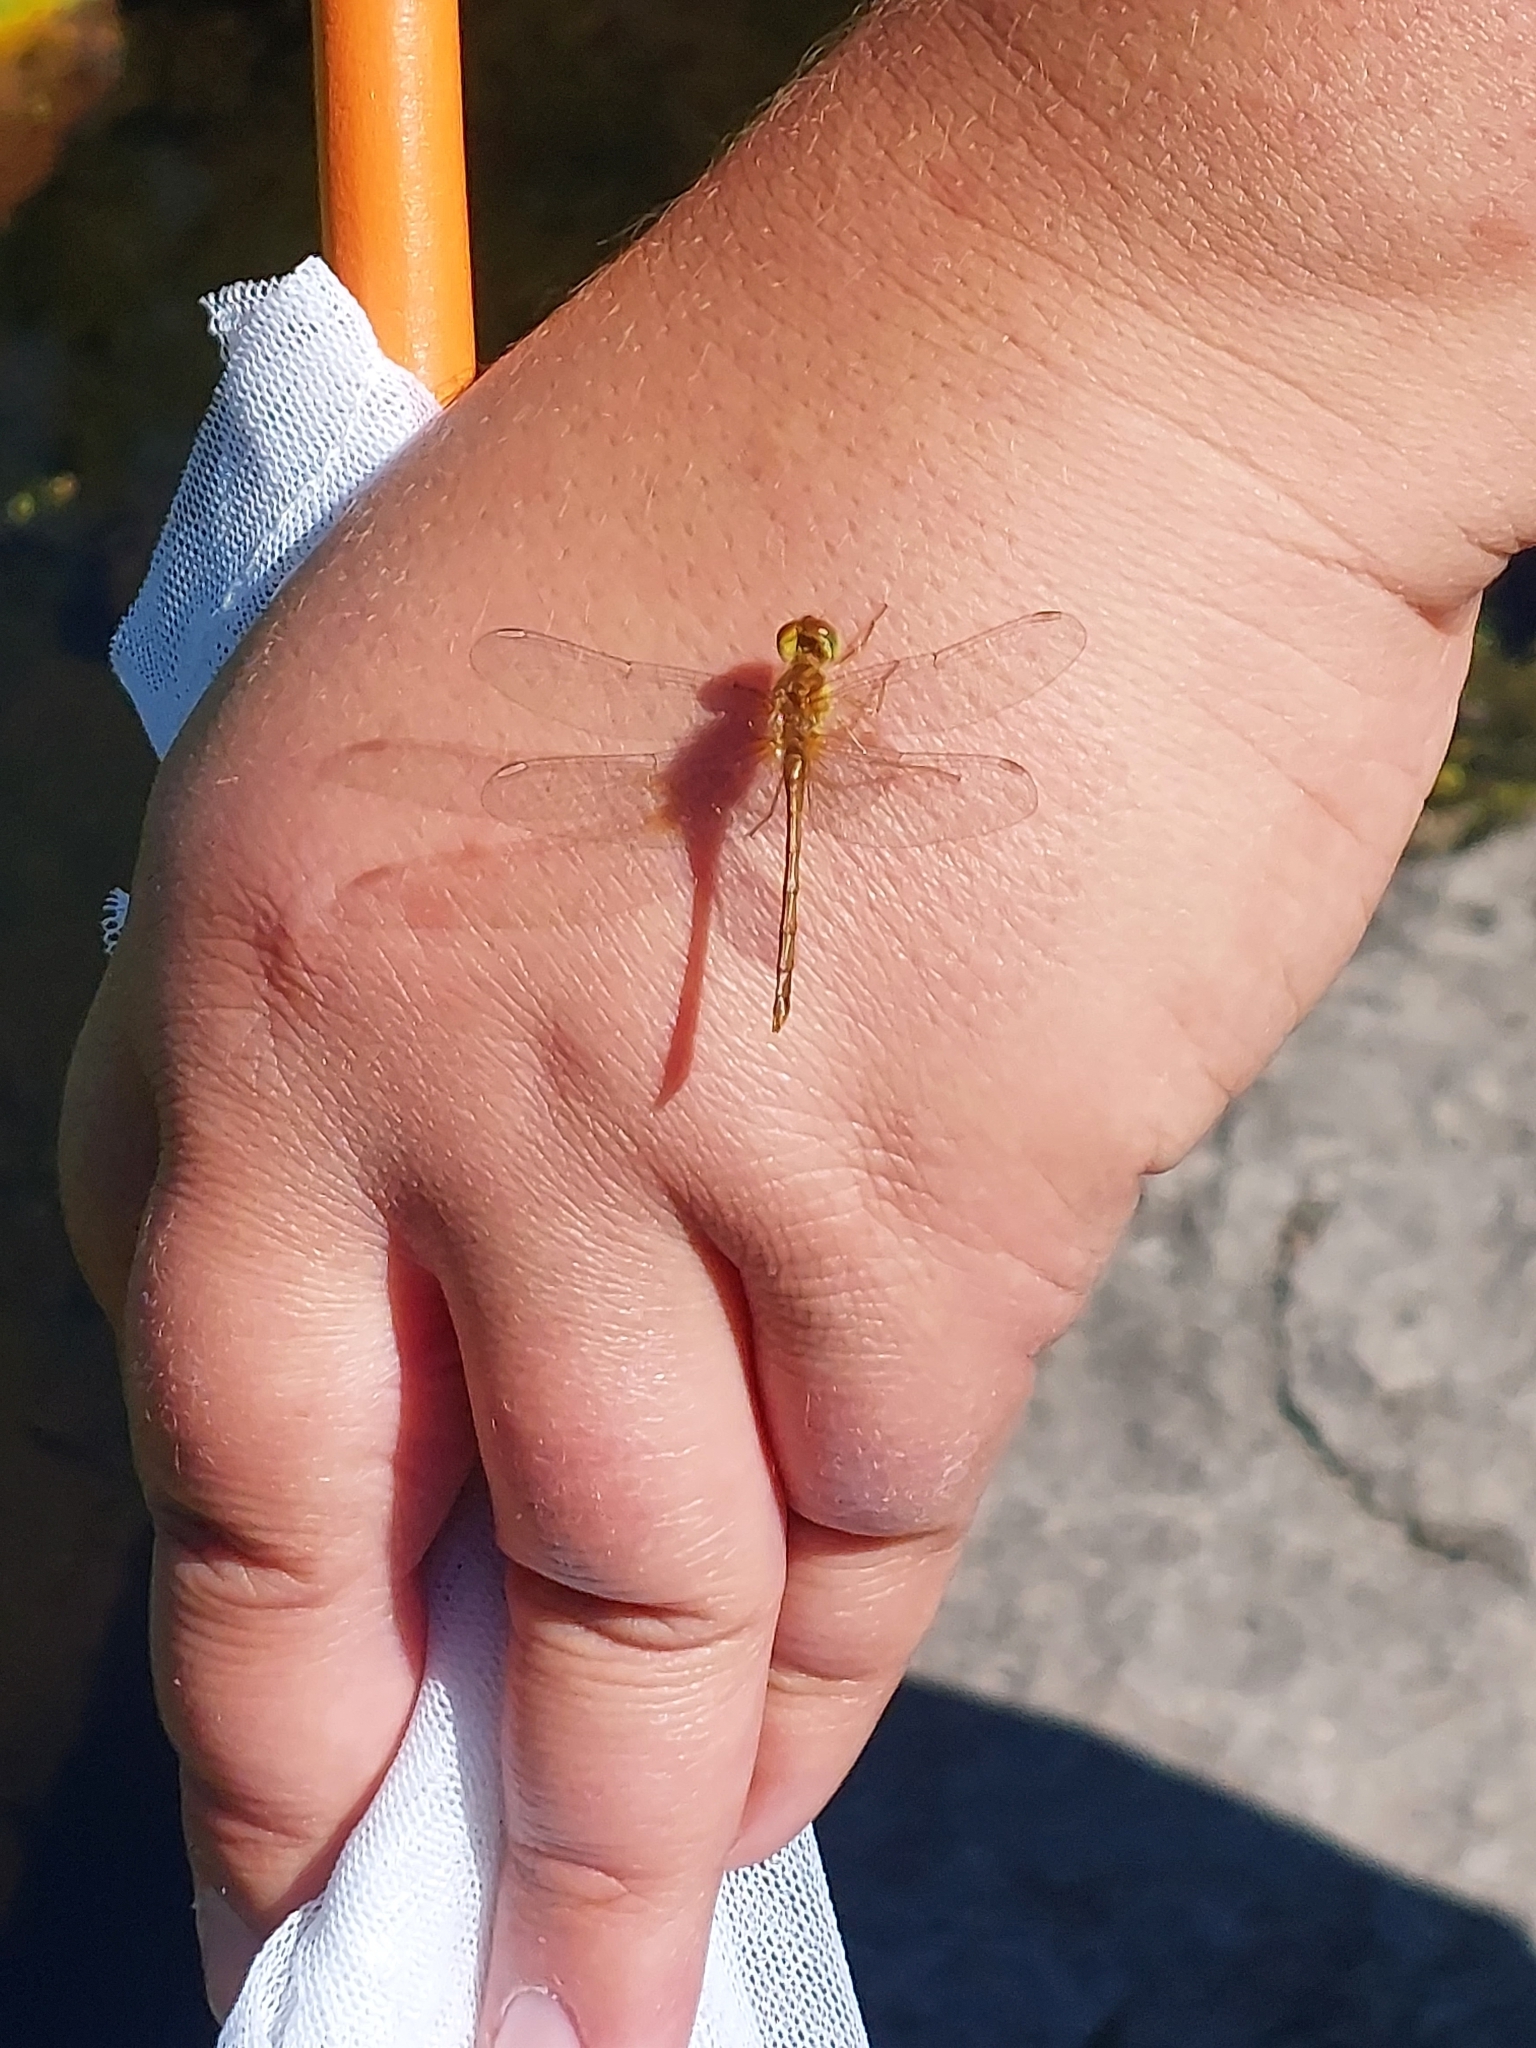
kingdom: Animalia
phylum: Arthropoda
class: Insecta
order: Odonata
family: Libellulidae
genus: Sympetrum
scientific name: Sympetrum vicinum
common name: Autumn meadowhawk
